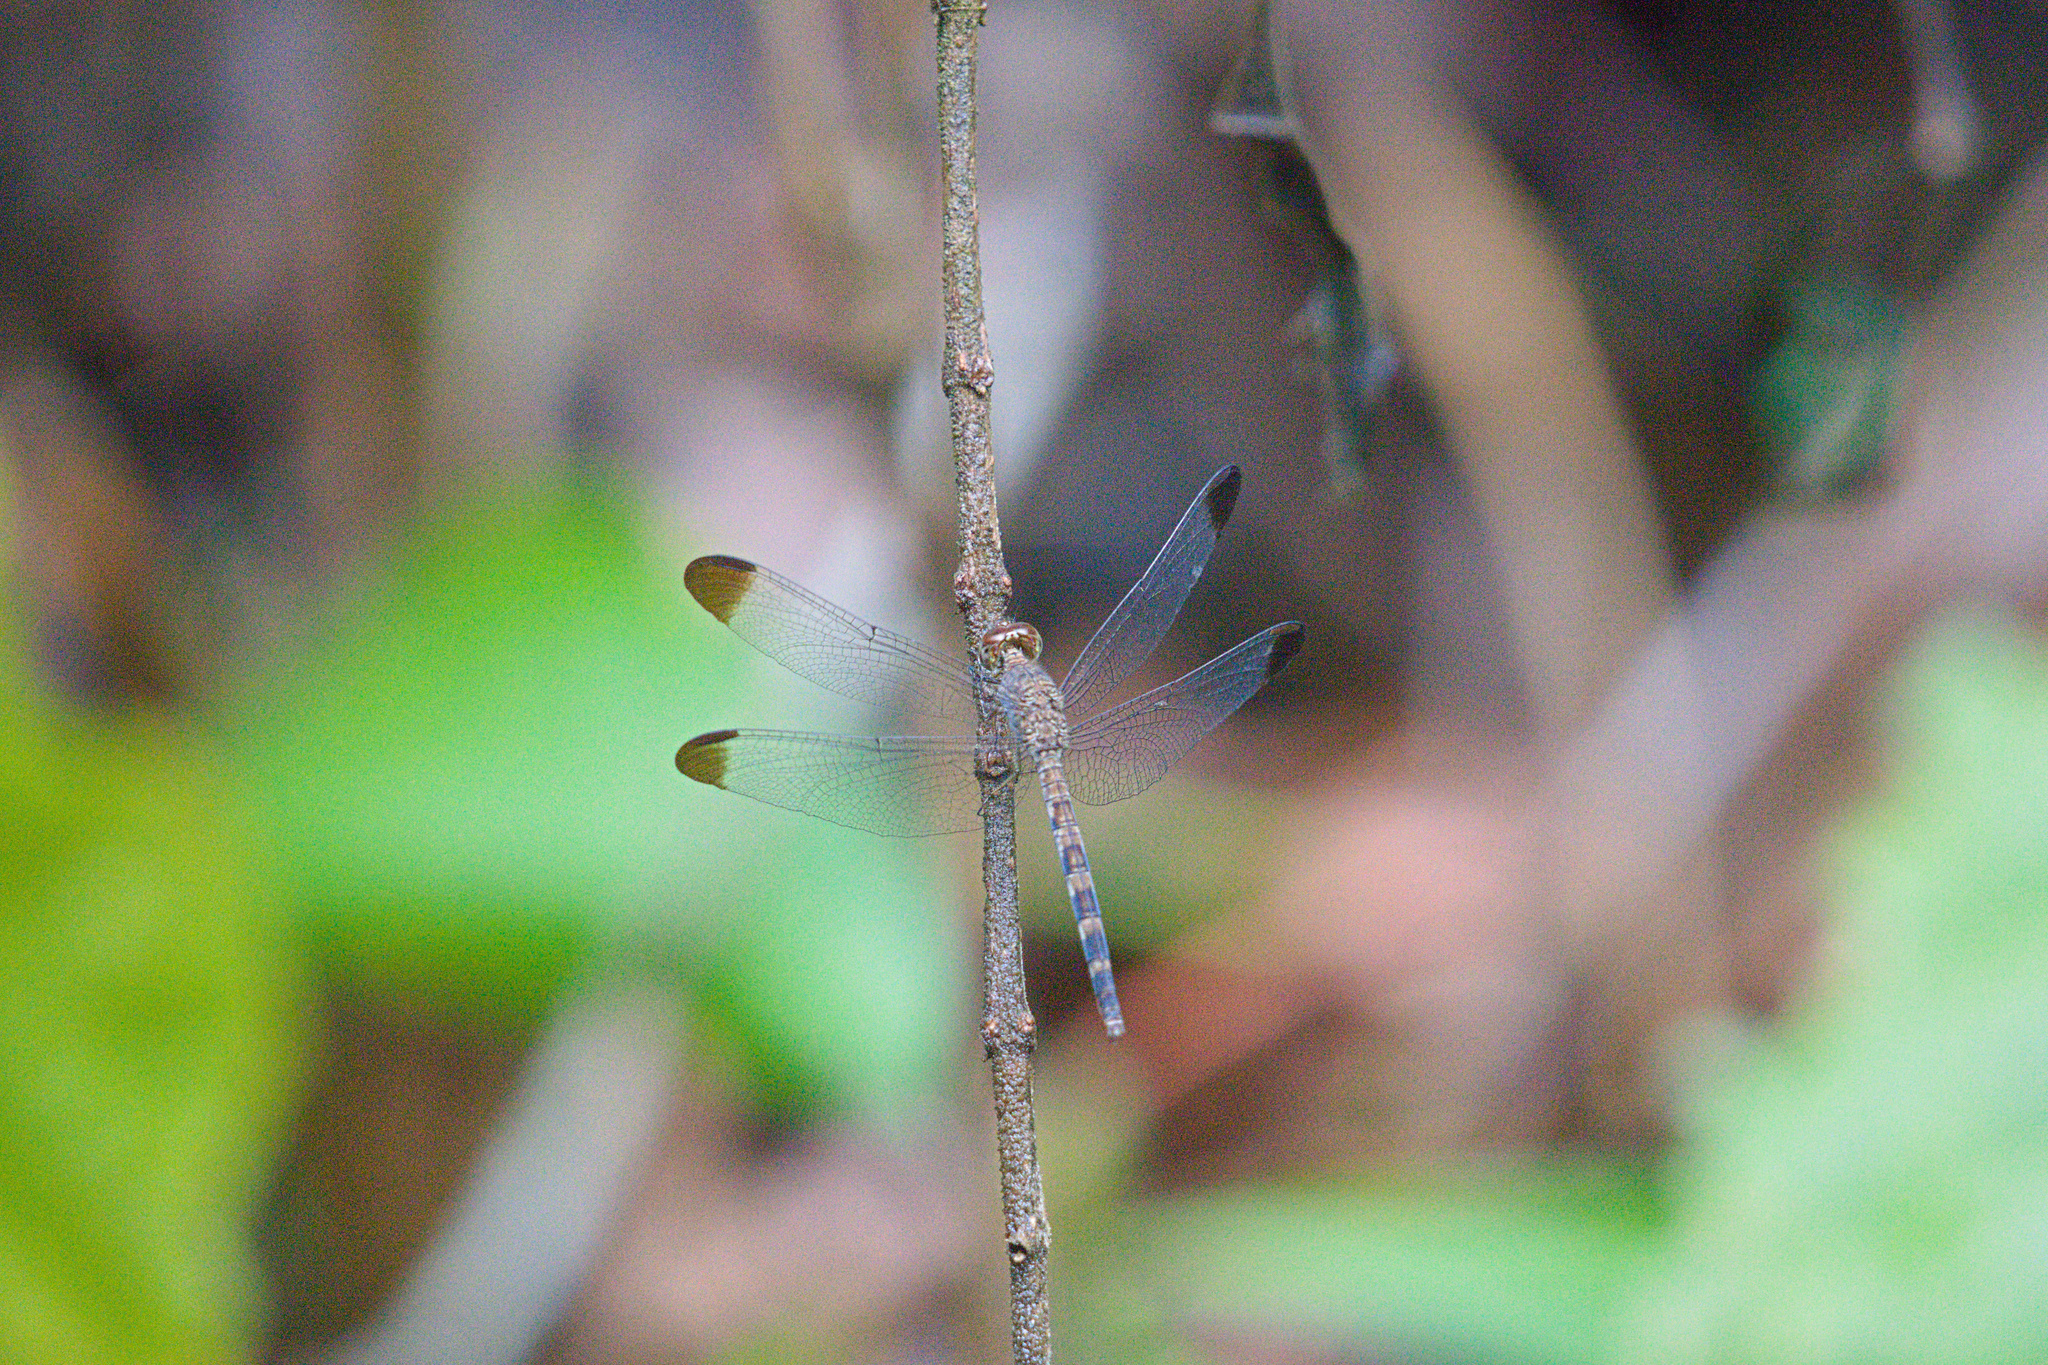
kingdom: Animalia
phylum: Arthropoda
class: Insecta
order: Odonata
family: Libellulidae
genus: Uracis
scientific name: Uracis imbuta
